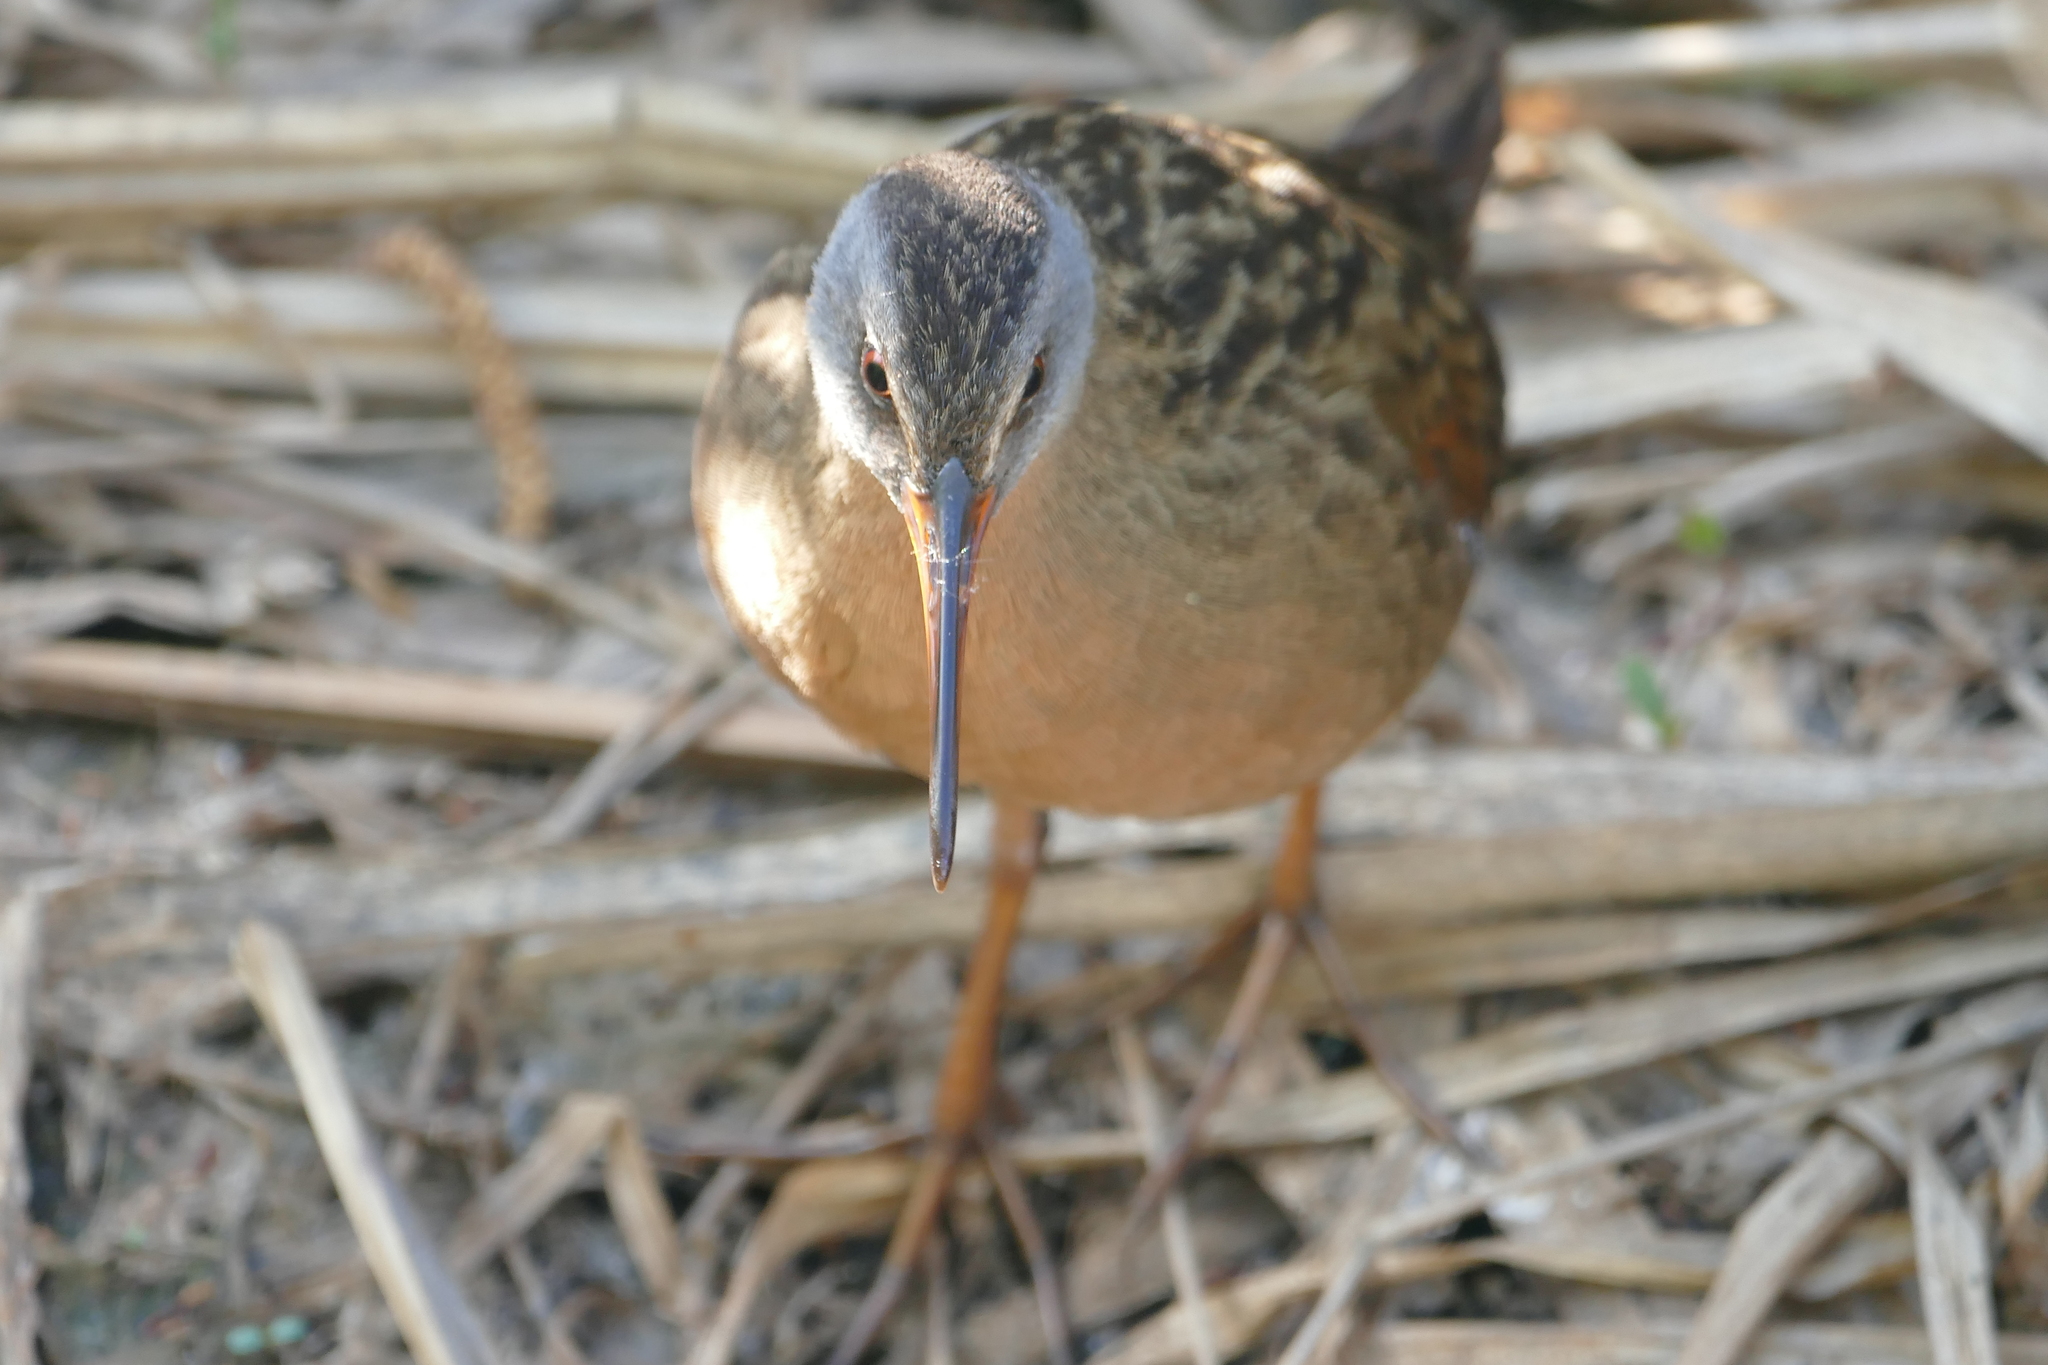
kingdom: Animalia
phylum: Chordata
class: Aves
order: Gruiformes
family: Rallidae
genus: Rallus
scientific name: Rallus limicola
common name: Virginia rail
